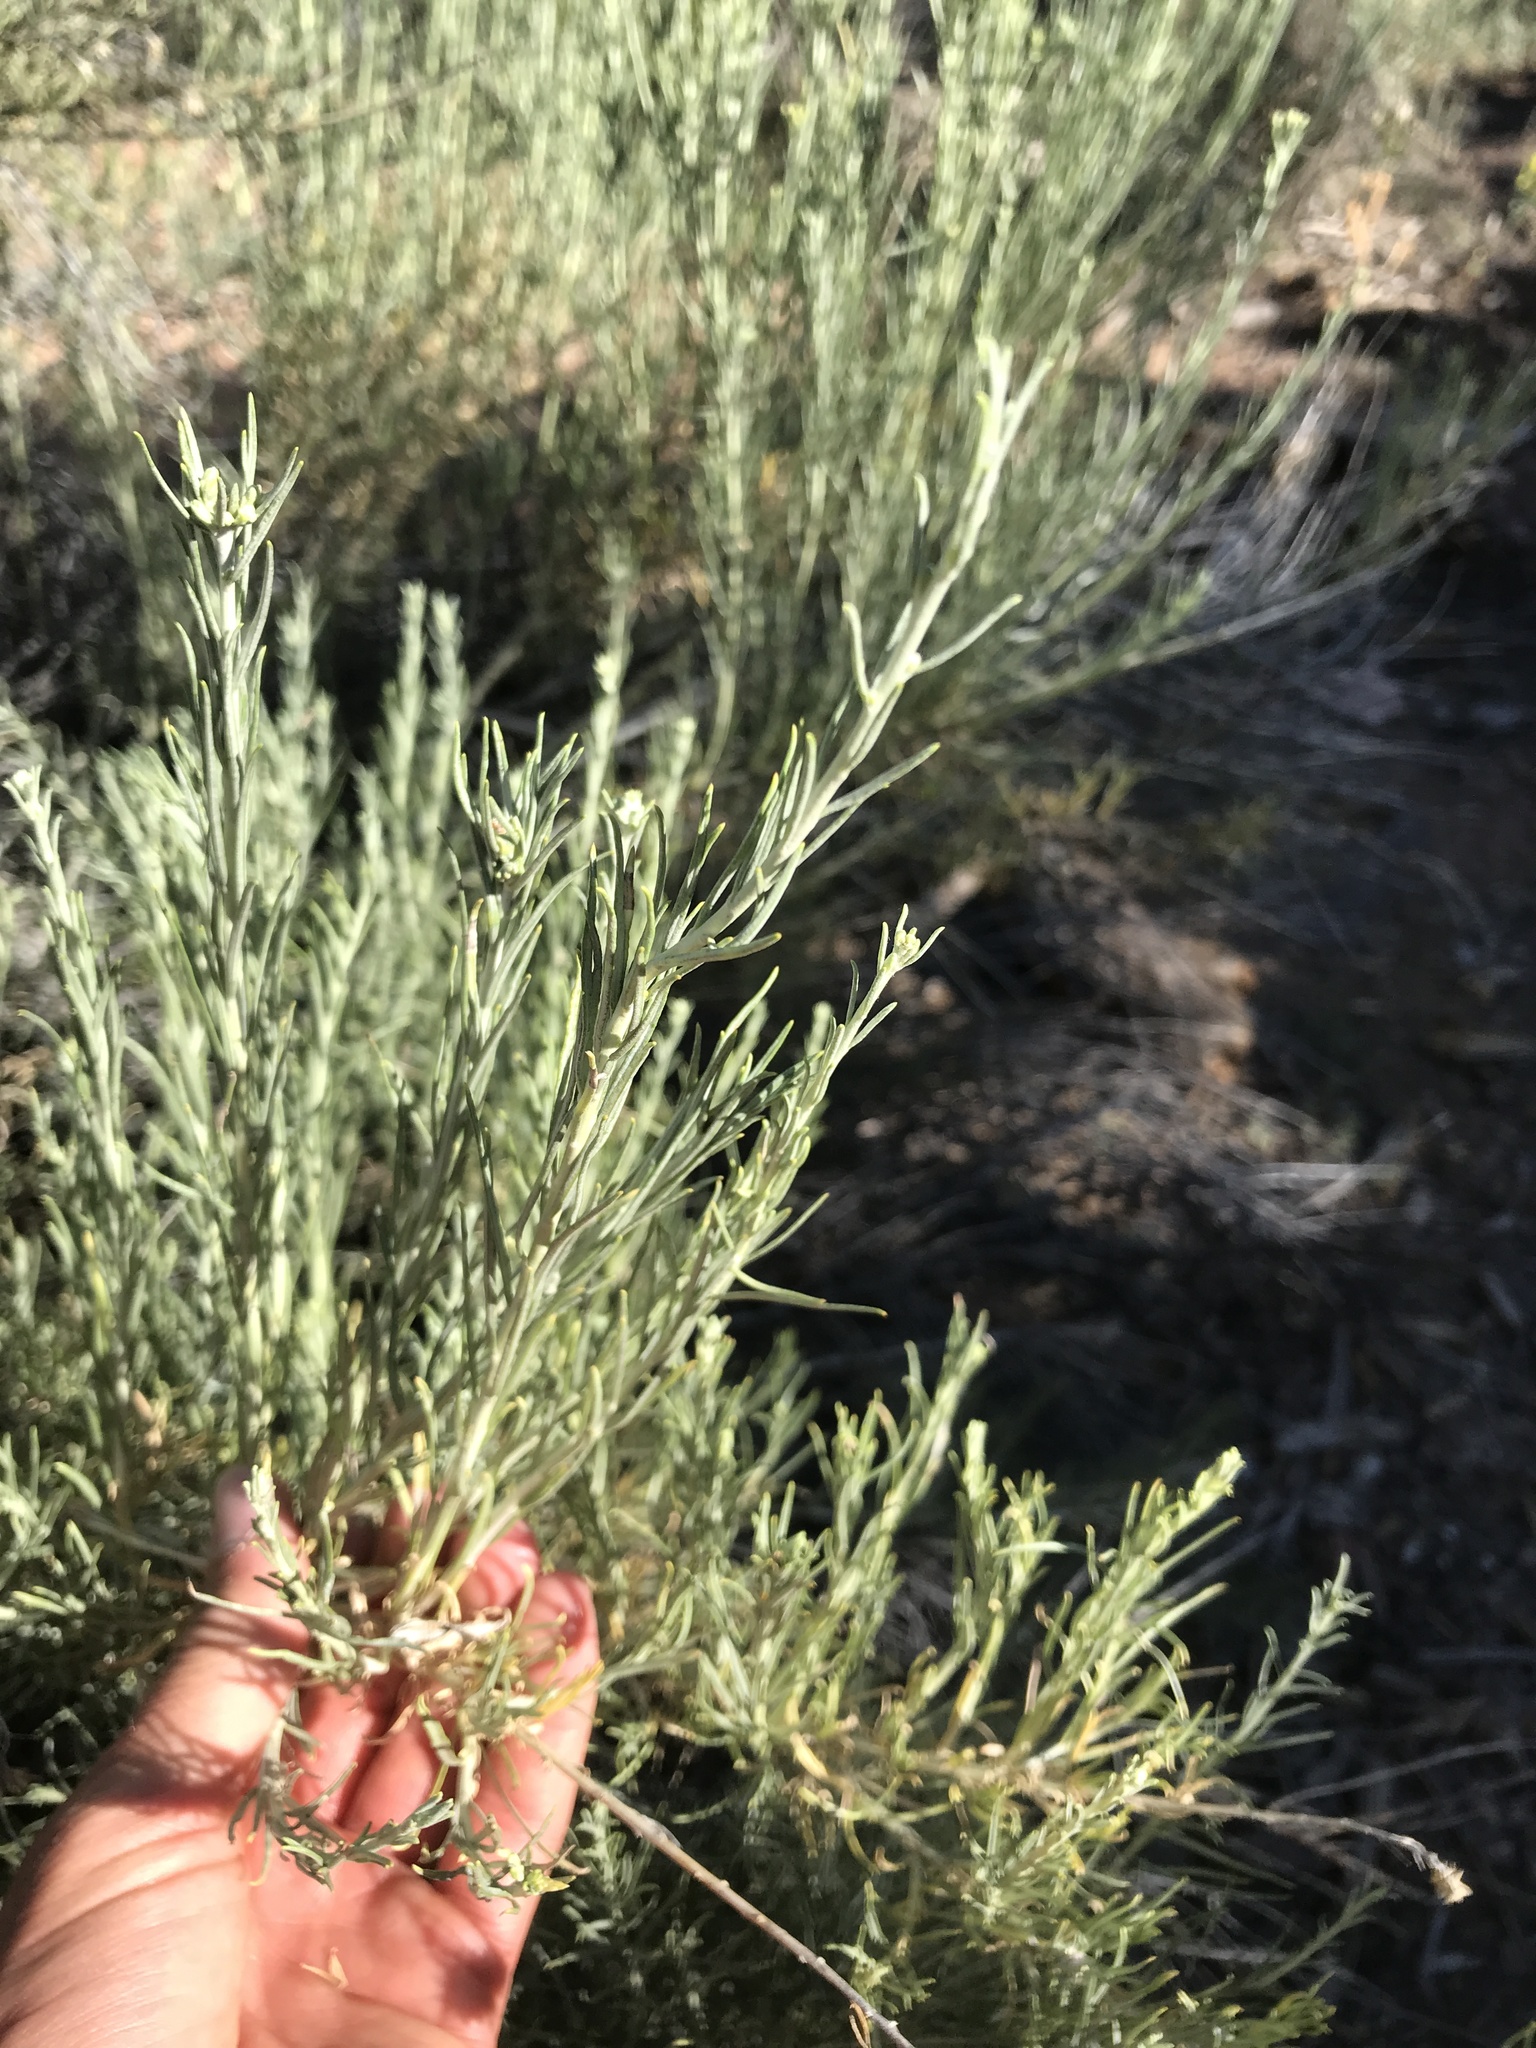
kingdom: Plantae
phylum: Tracheophyta
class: Magnoliopsida
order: Asterales
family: Asteraceae
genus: Ericameria
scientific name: Ericameria nauseosa
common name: Rubber rabbitbrush
